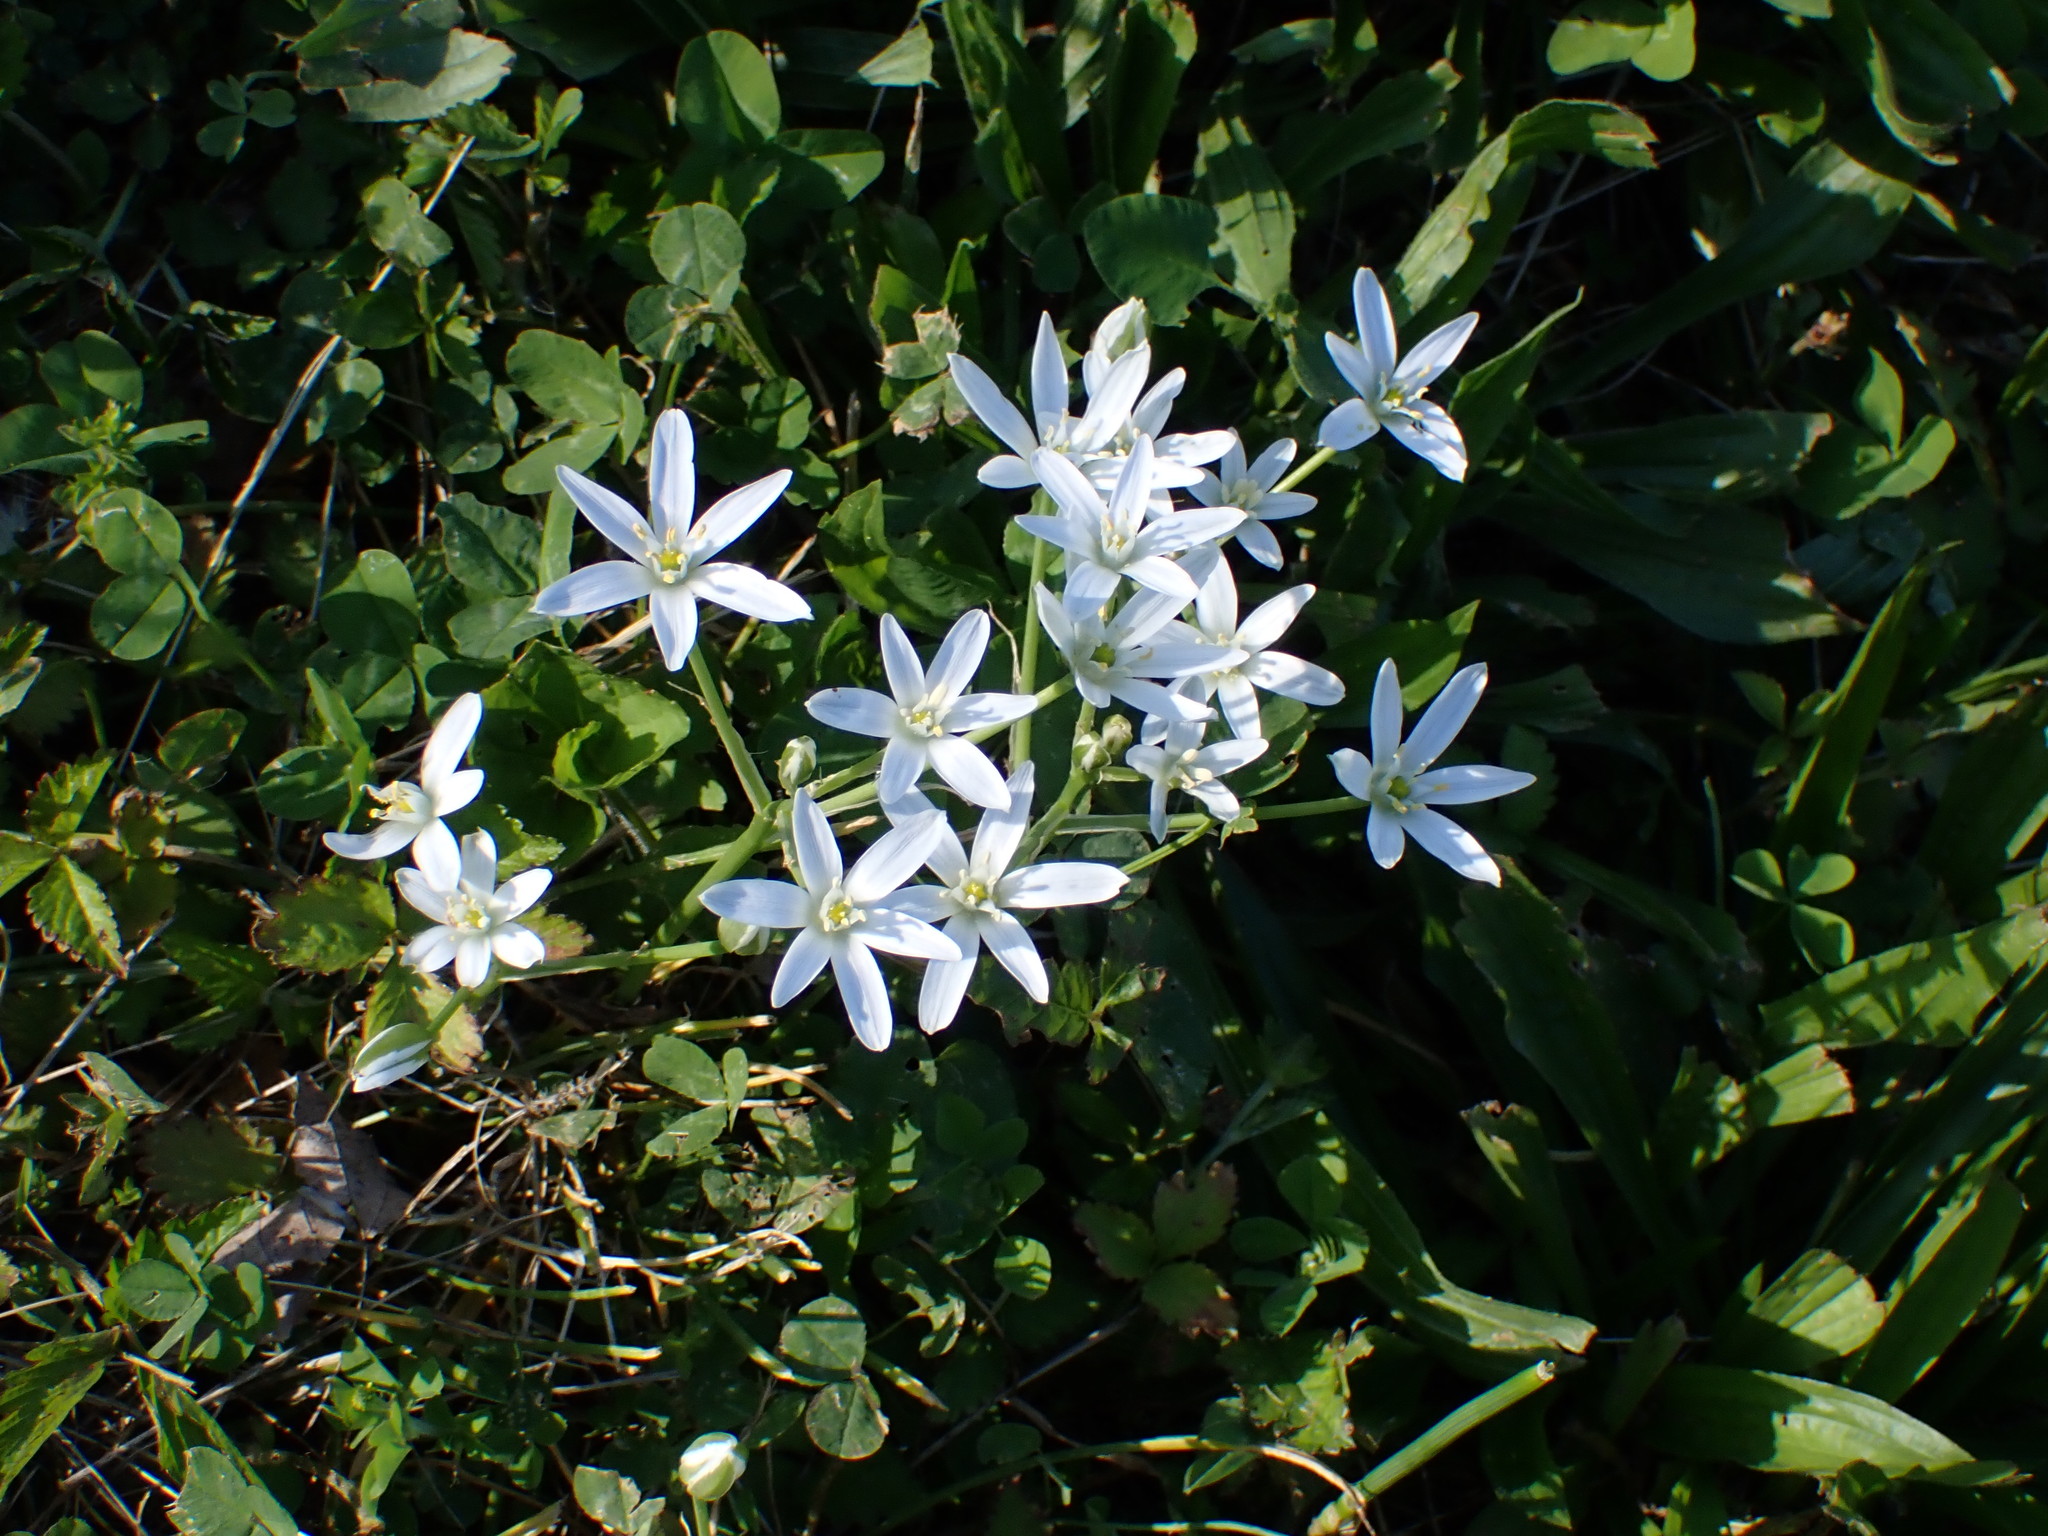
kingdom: Plantae
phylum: Tracheophyta
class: Liliopsida
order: Asparagales
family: Asparagaceae
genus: Ornithogalum
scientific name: Ornithogalum umbellatum
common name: Garden star-of-bethlehem
